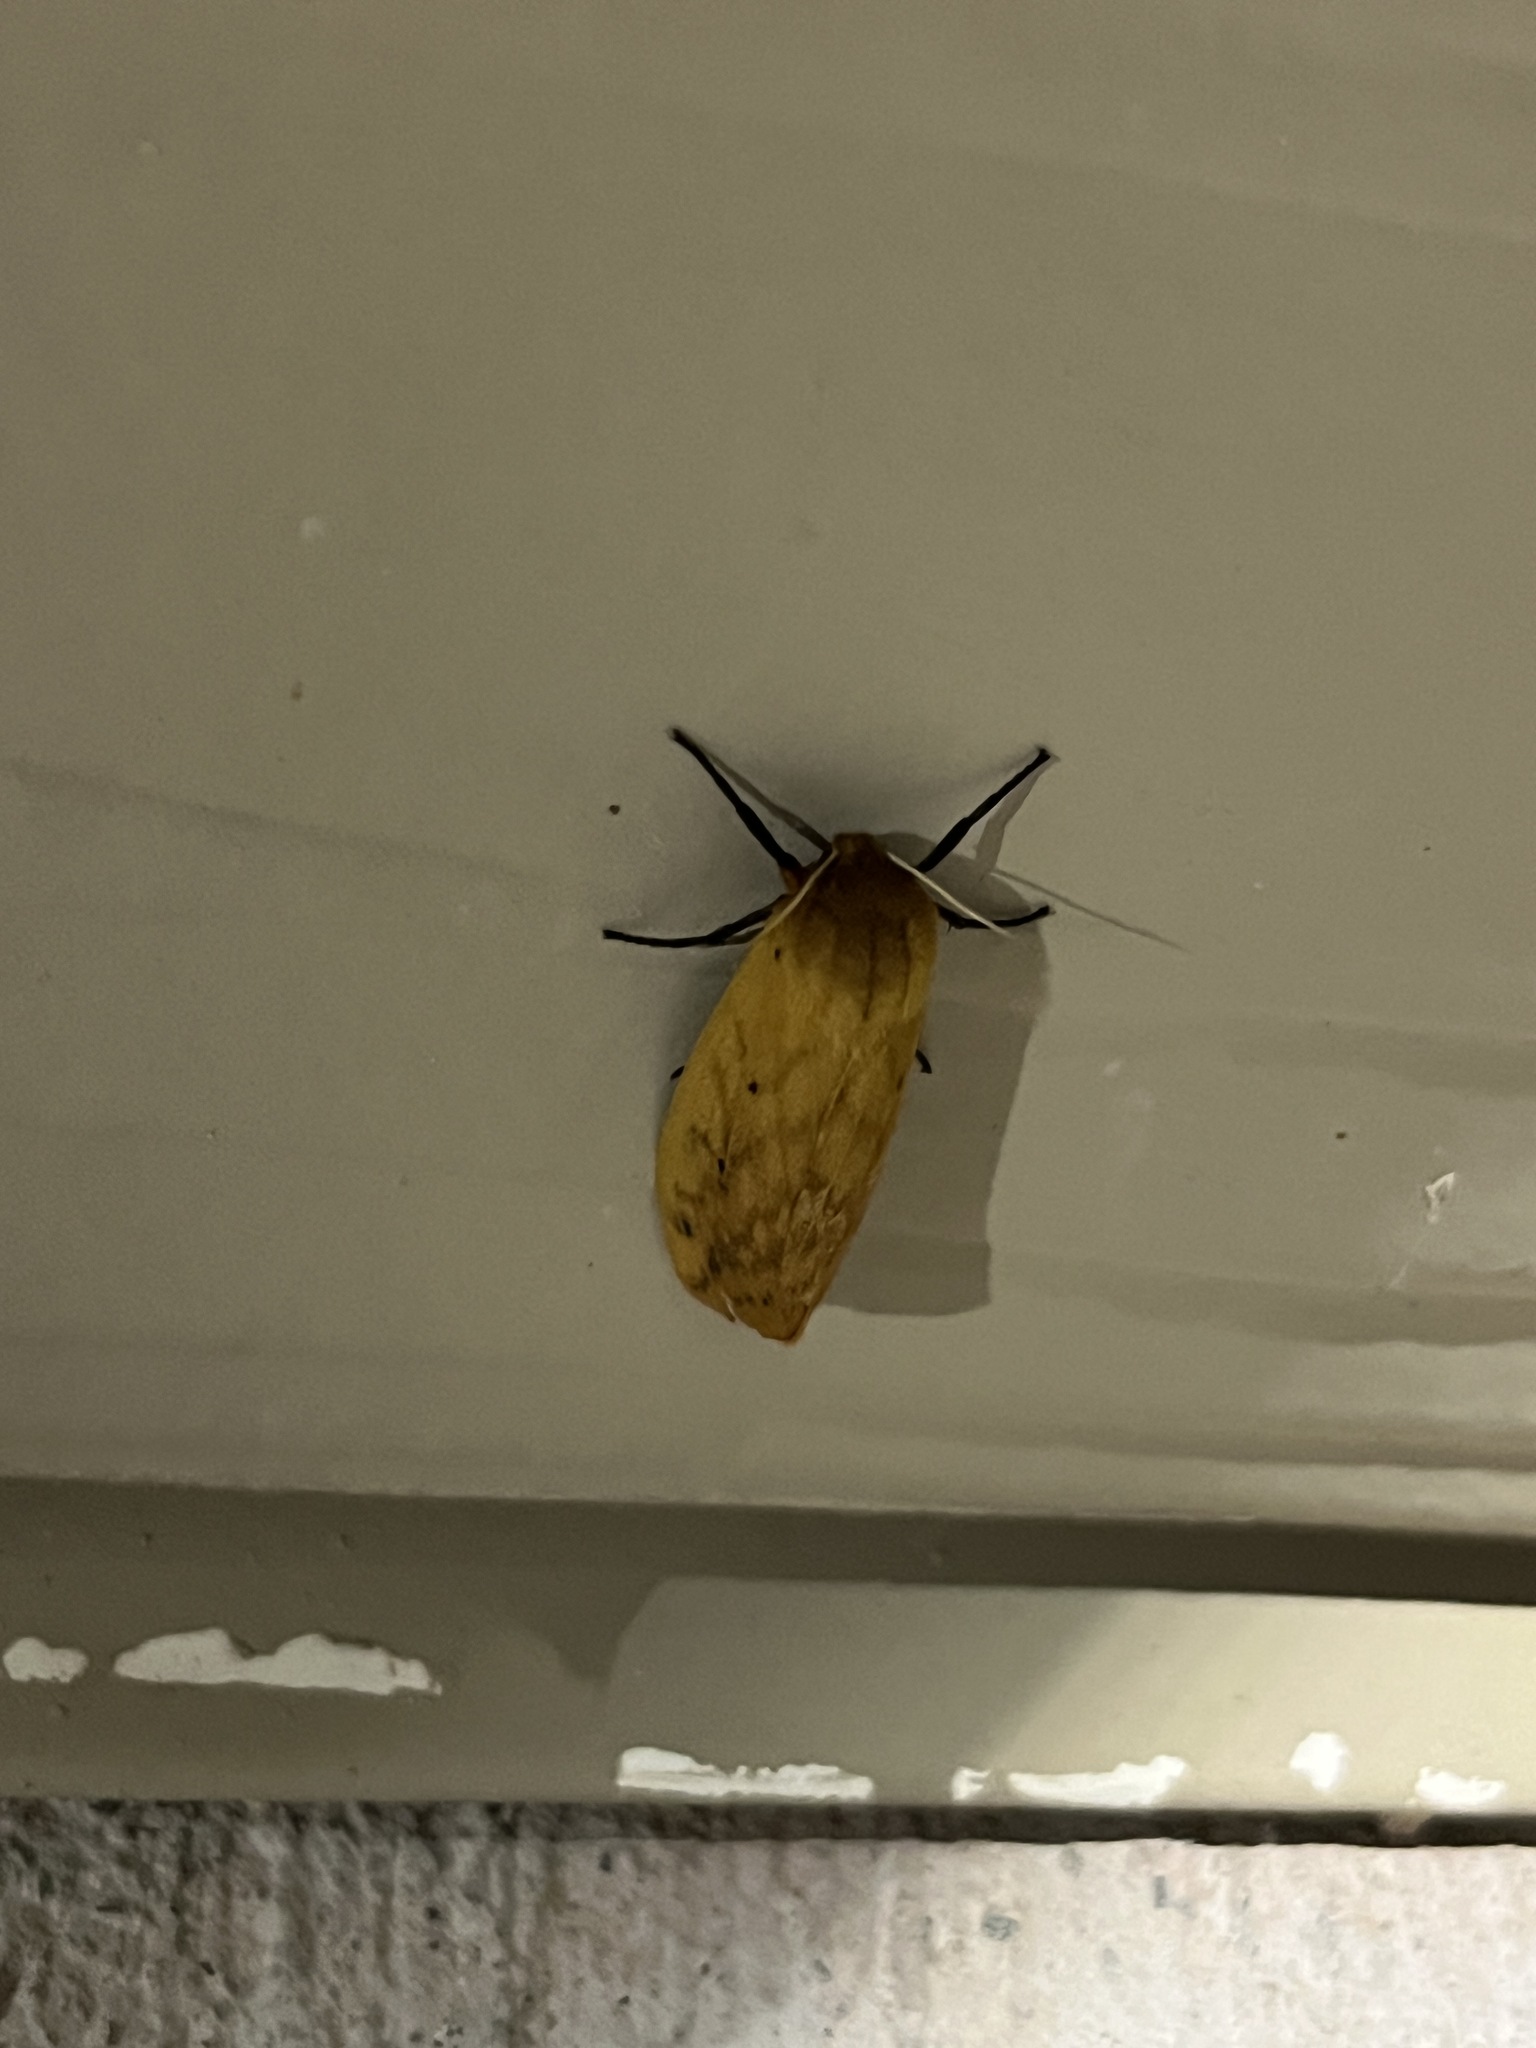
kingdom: Animalia
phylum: Arthropoda
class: Insecta
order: Lepidoptera
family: Erebidae
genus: Pyrrharctia
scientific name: Pyrrharctia isabella
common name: Isabella tiger moth
